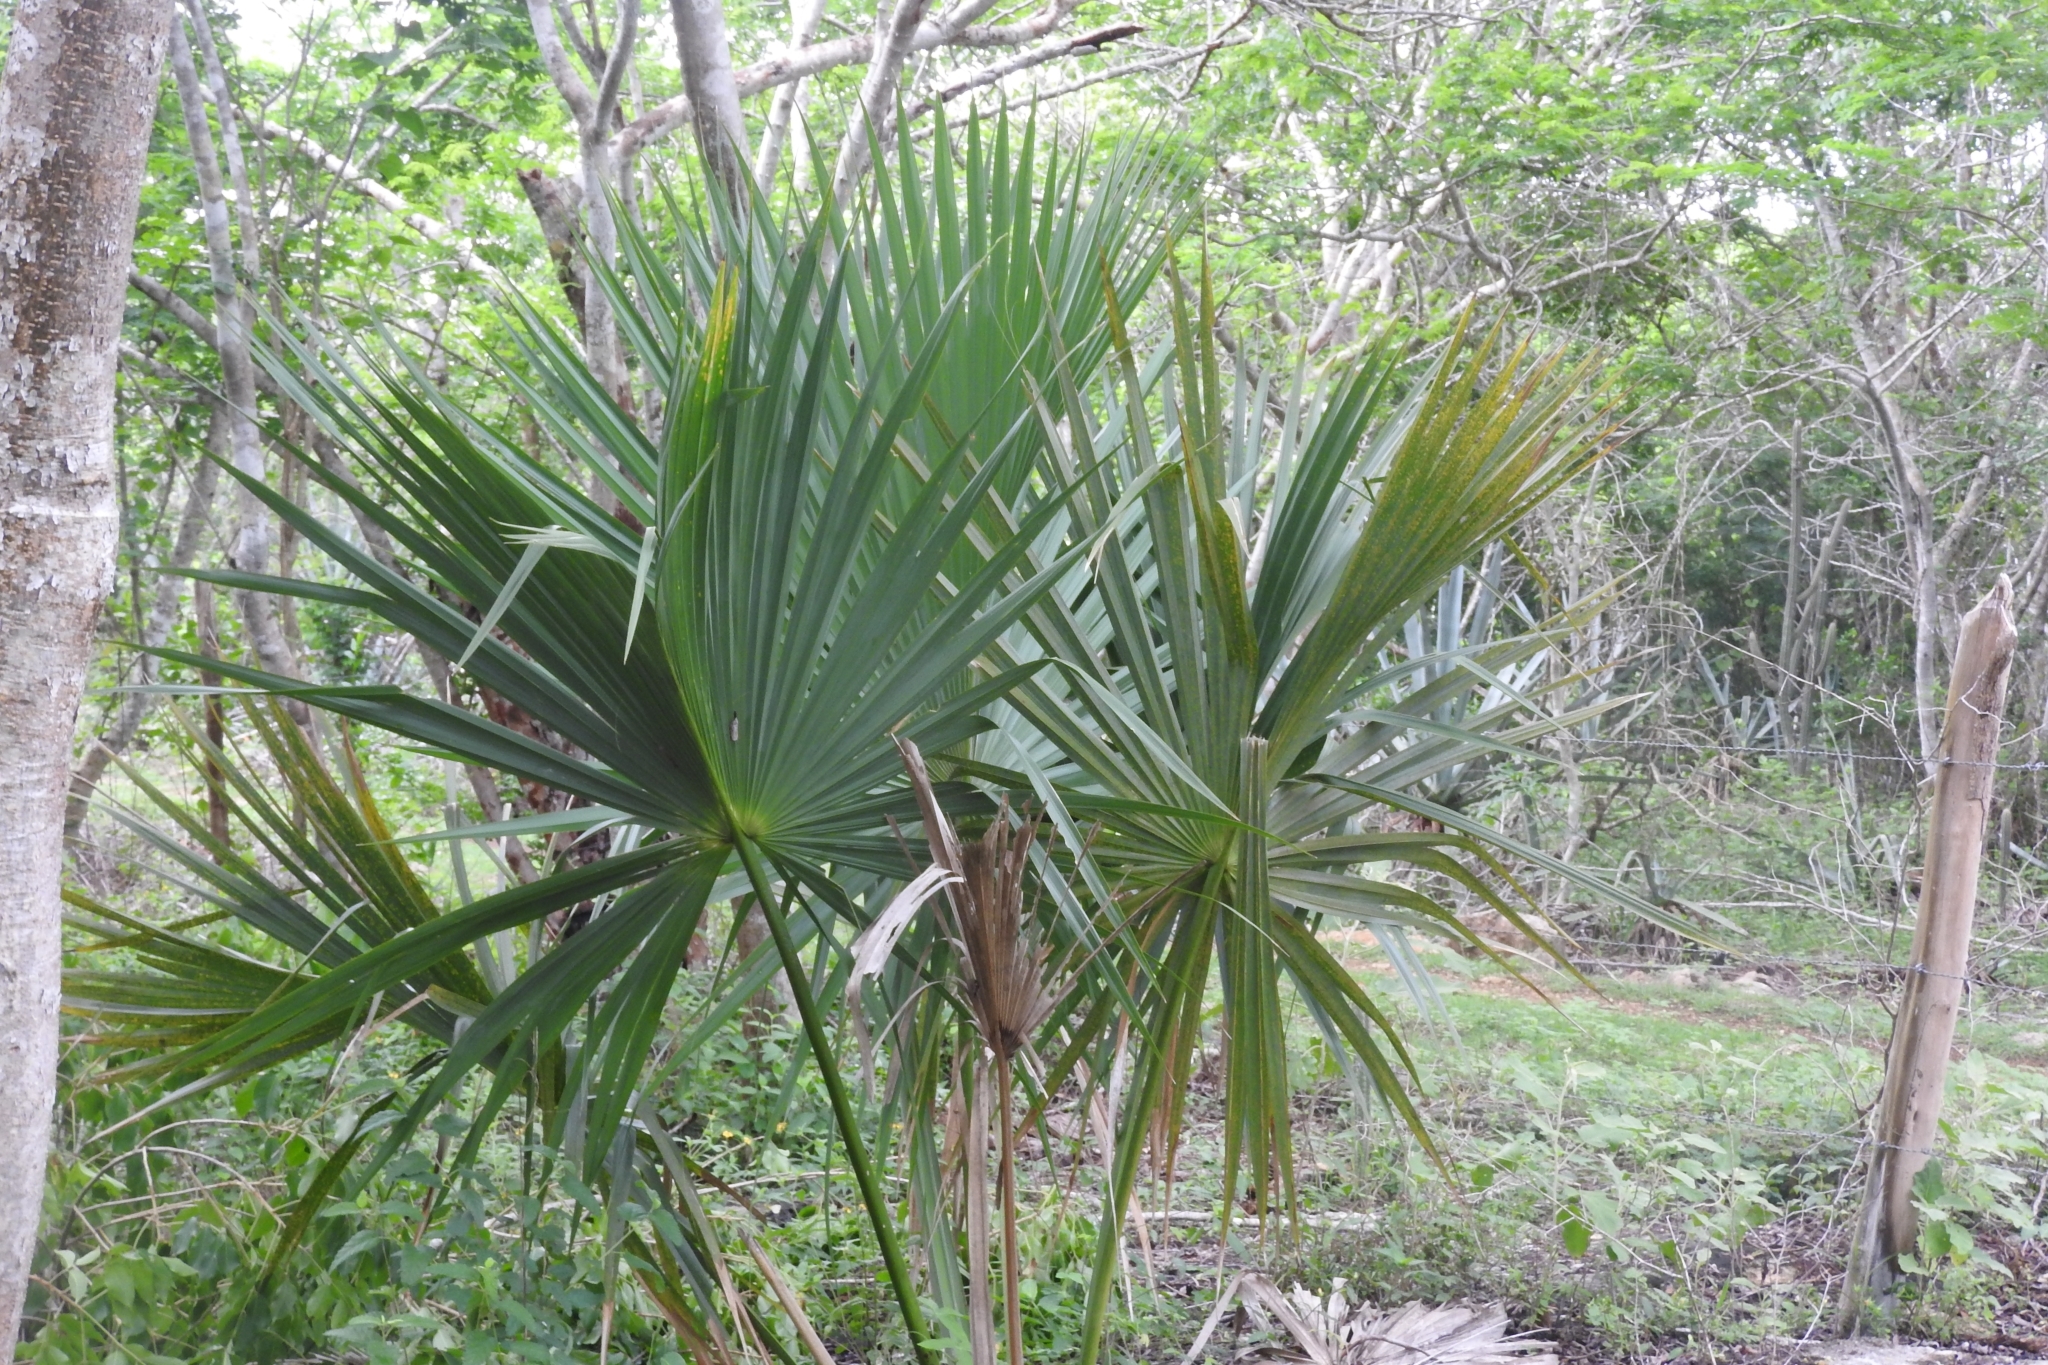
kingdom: Plantae
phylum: Tracheophyta
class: Liliopsida
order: Arecales
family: Arecaceae
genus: Sabal
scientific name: Sabal mexicana
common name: Texas palmetto
